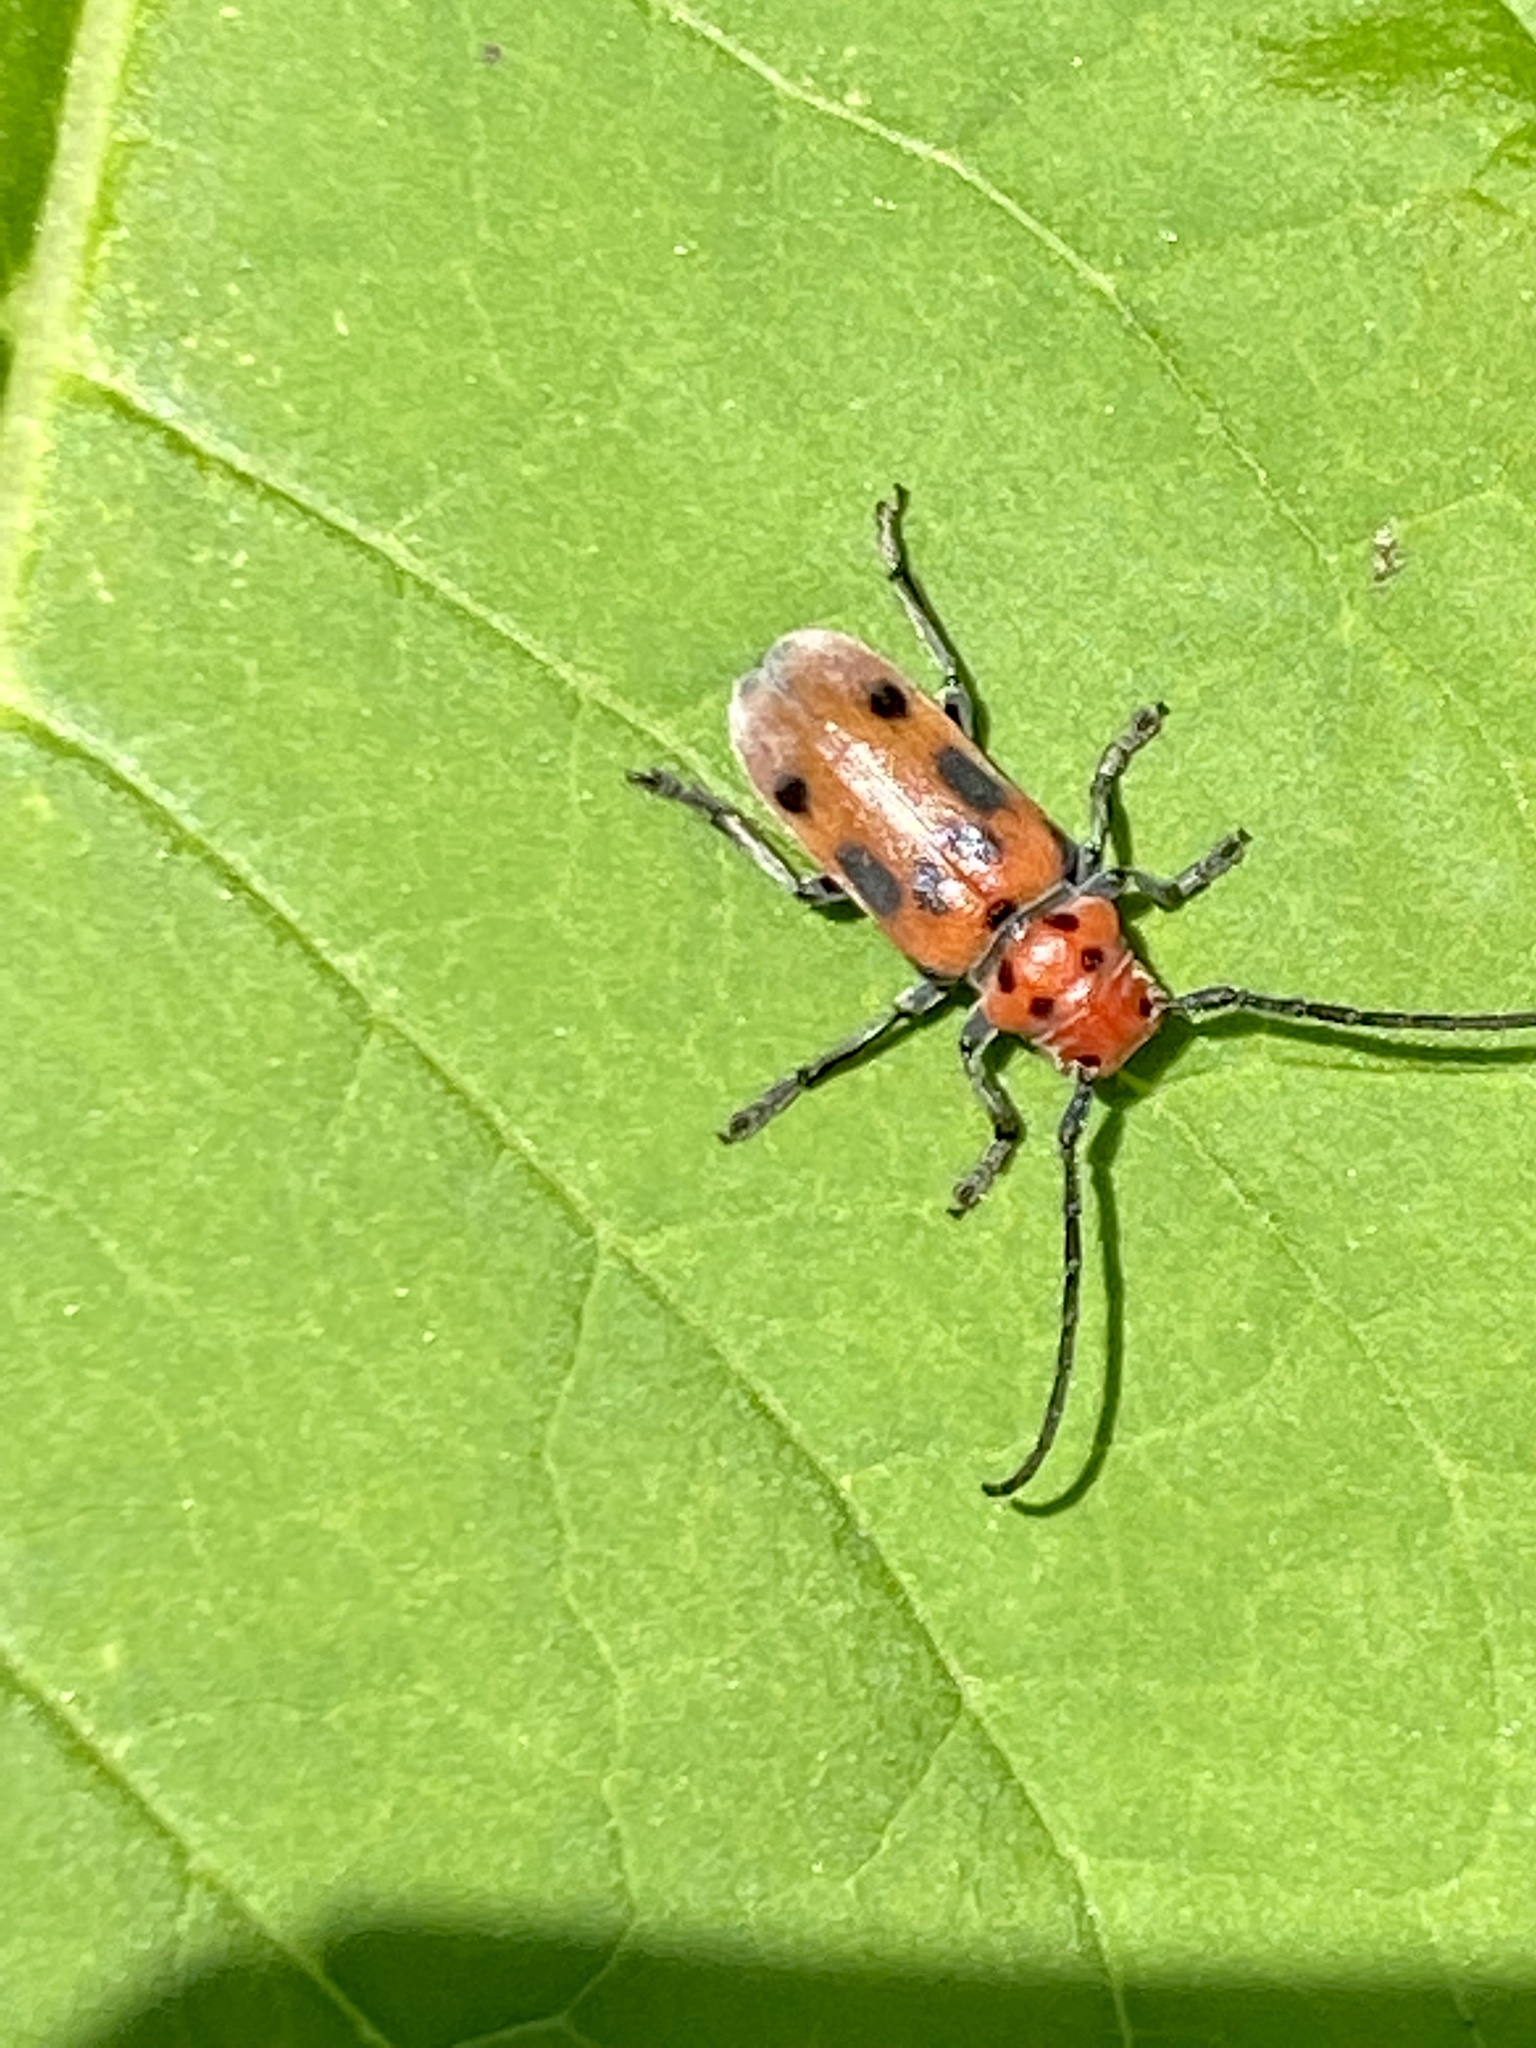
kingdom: Animalia
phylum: Arthropoda
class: Insecta
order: Coleoptera
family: Cerambycidae
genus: Tetraopes
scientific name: Tetraopes tetrophthalmus
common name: Red milkweed beetle
